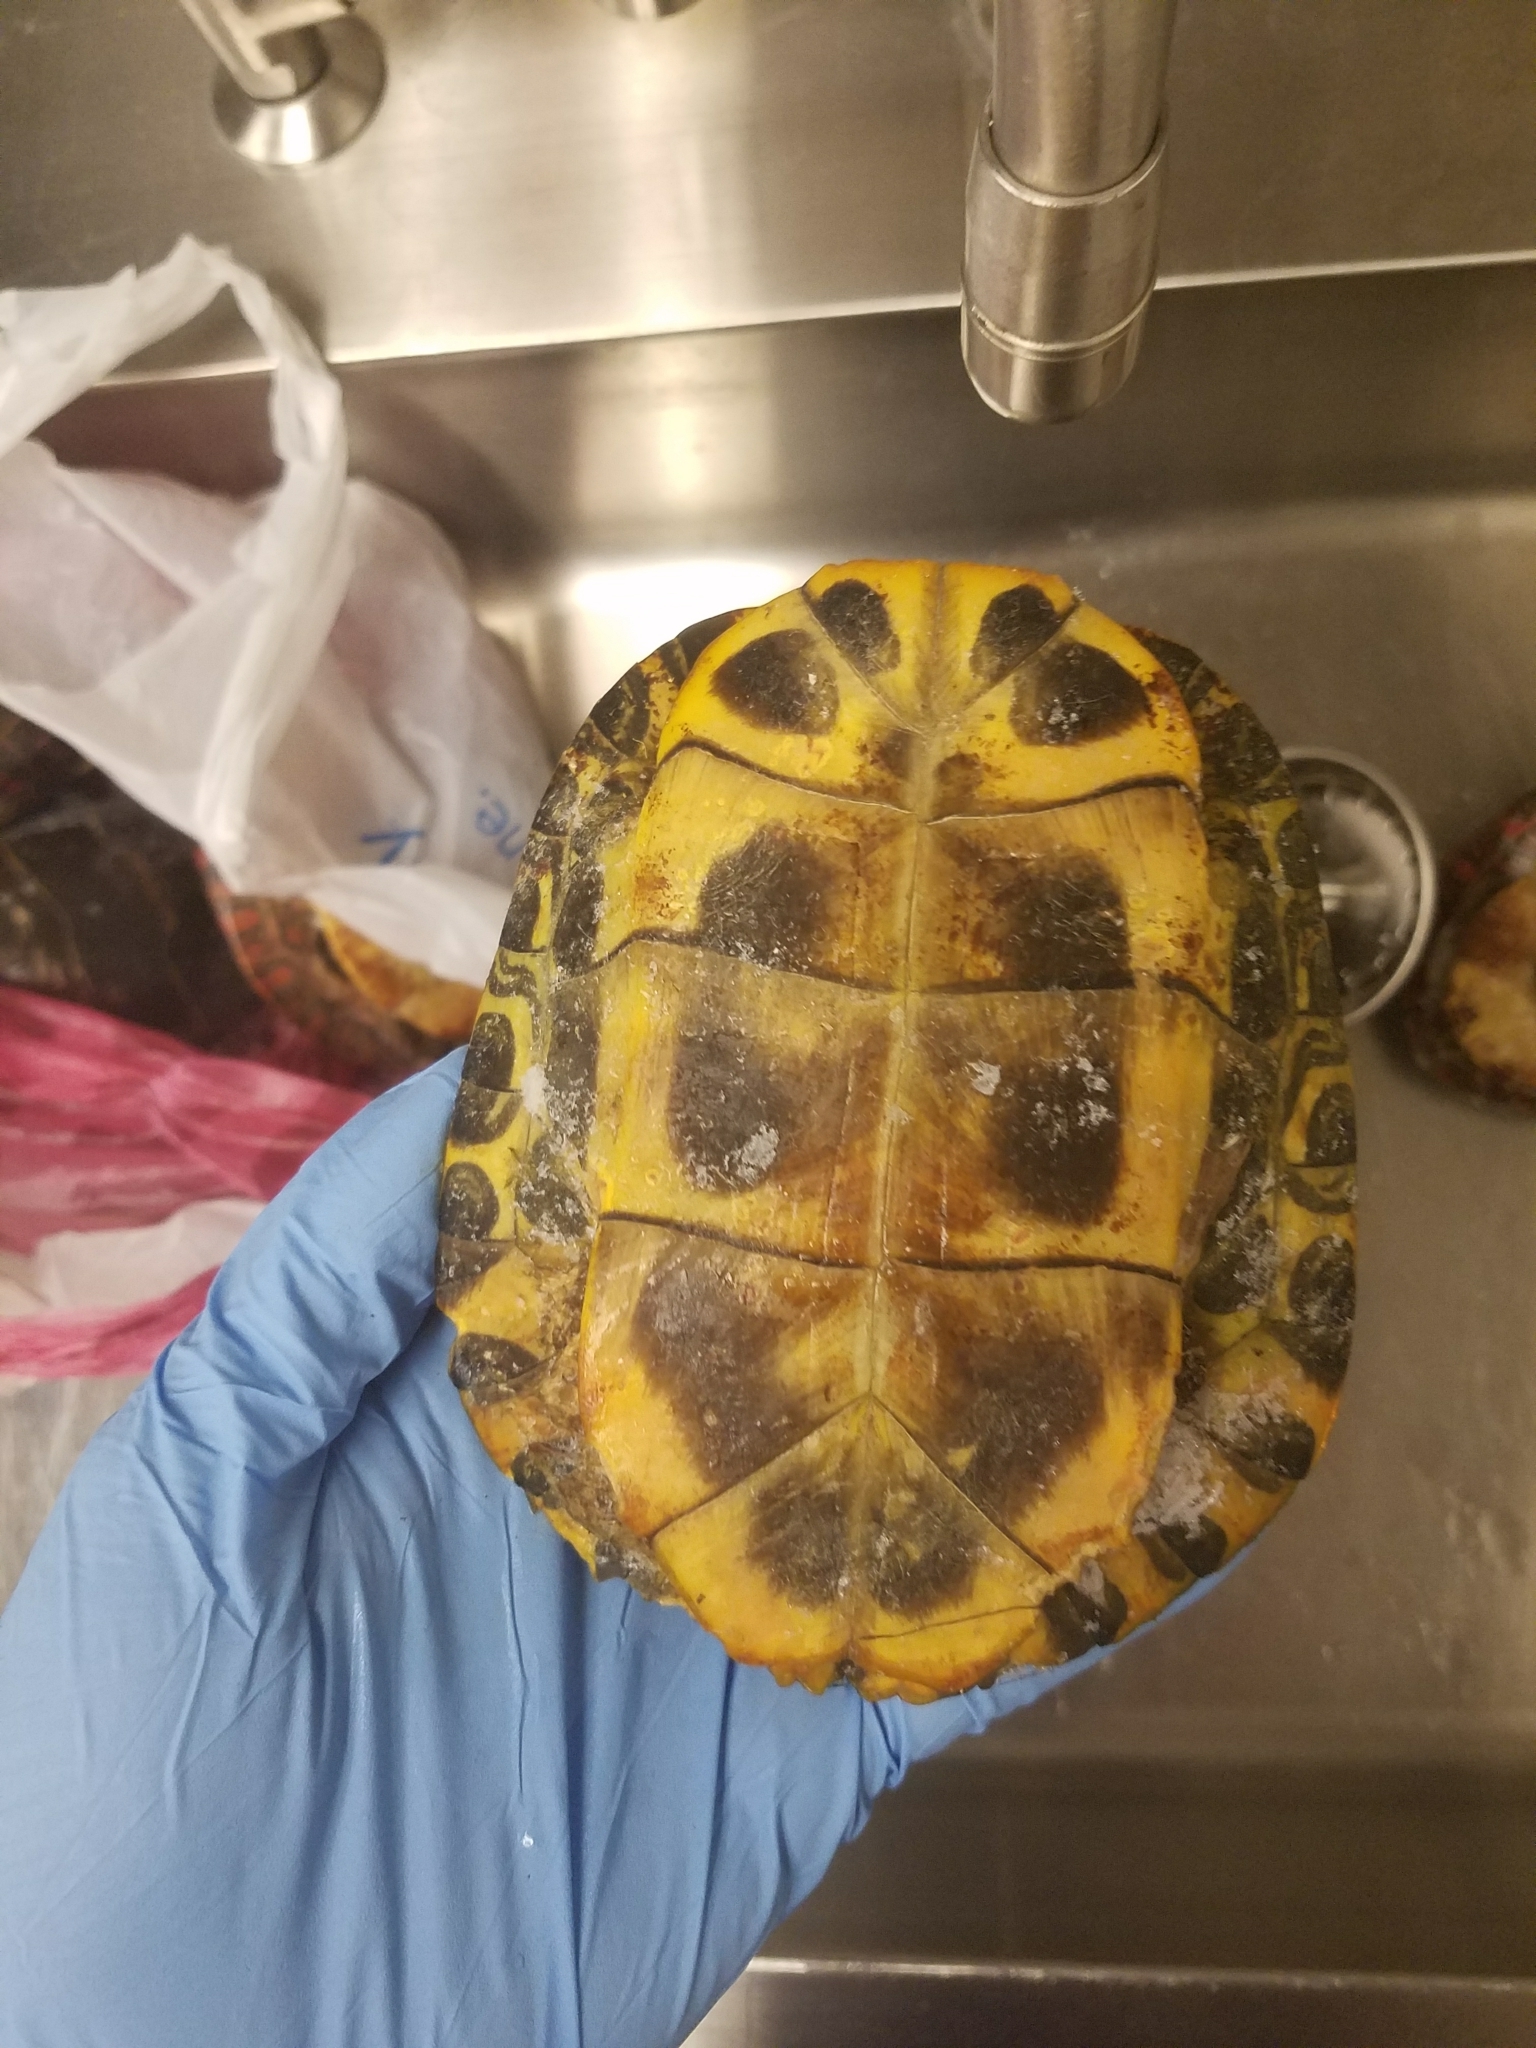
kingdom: Animalia
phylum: Chordata
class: Testudines
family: Emydidae
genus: Trachemys
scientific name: Trachemys scripta
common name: Slider
